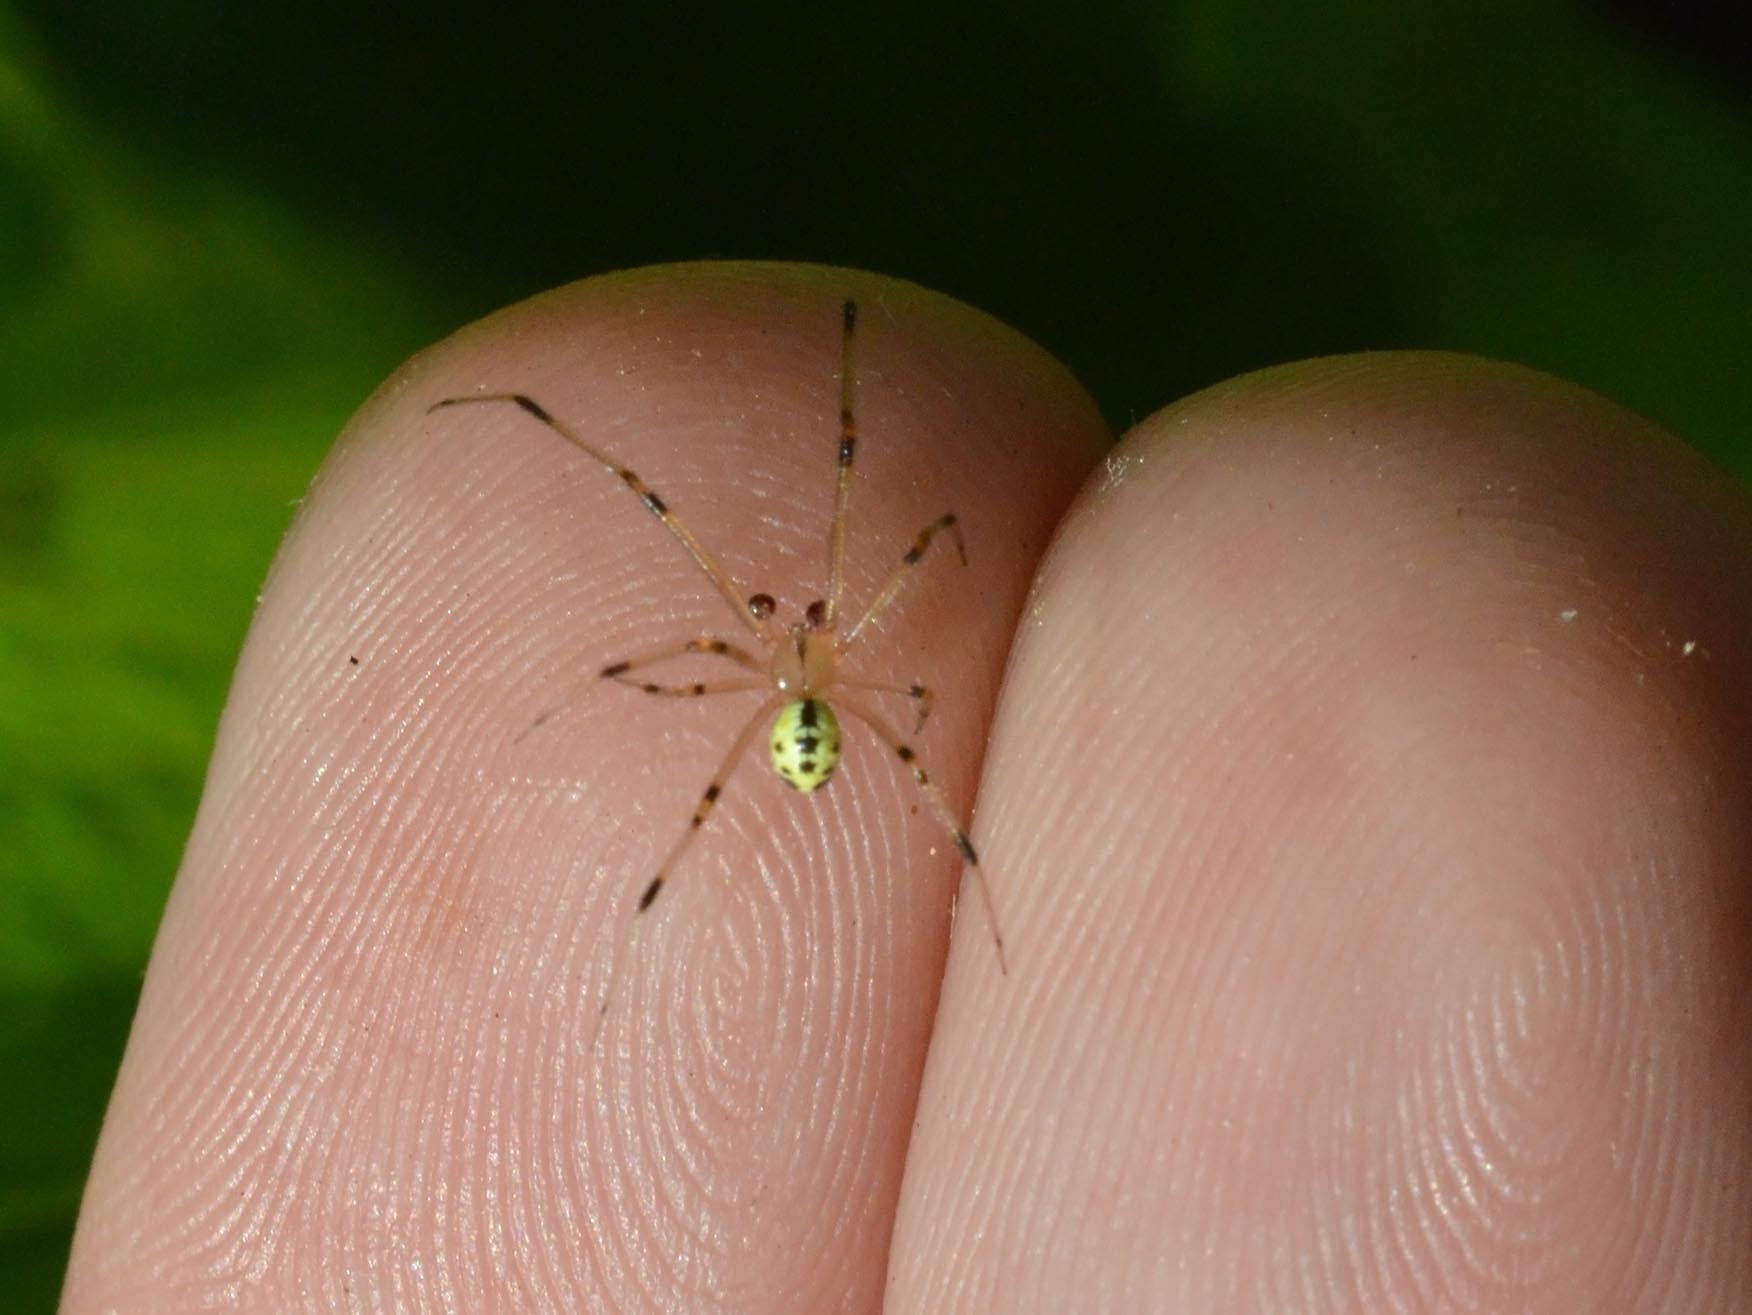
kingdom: Animalia
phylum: Arthropoda
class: Arachnida
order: Araneae
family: Theridiidae
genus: Heterotheridion
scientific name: Heterotheridion nigrovariegatum
